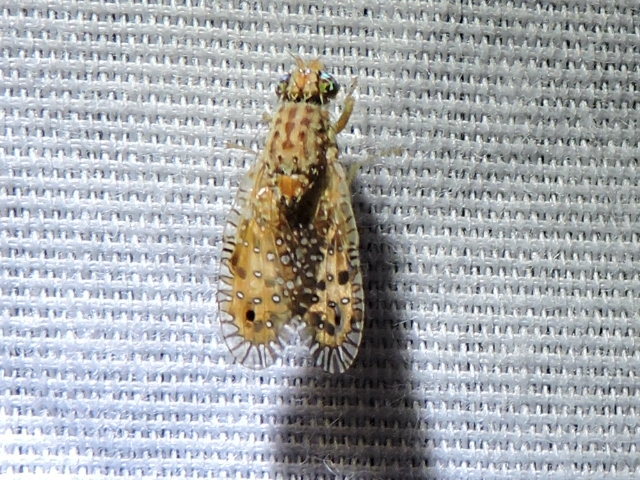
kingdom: Animalia
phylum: Arthropoda
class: Insecta
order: Diptera
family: Tephritidae
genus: Paracantha
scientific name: Paracantha culta
